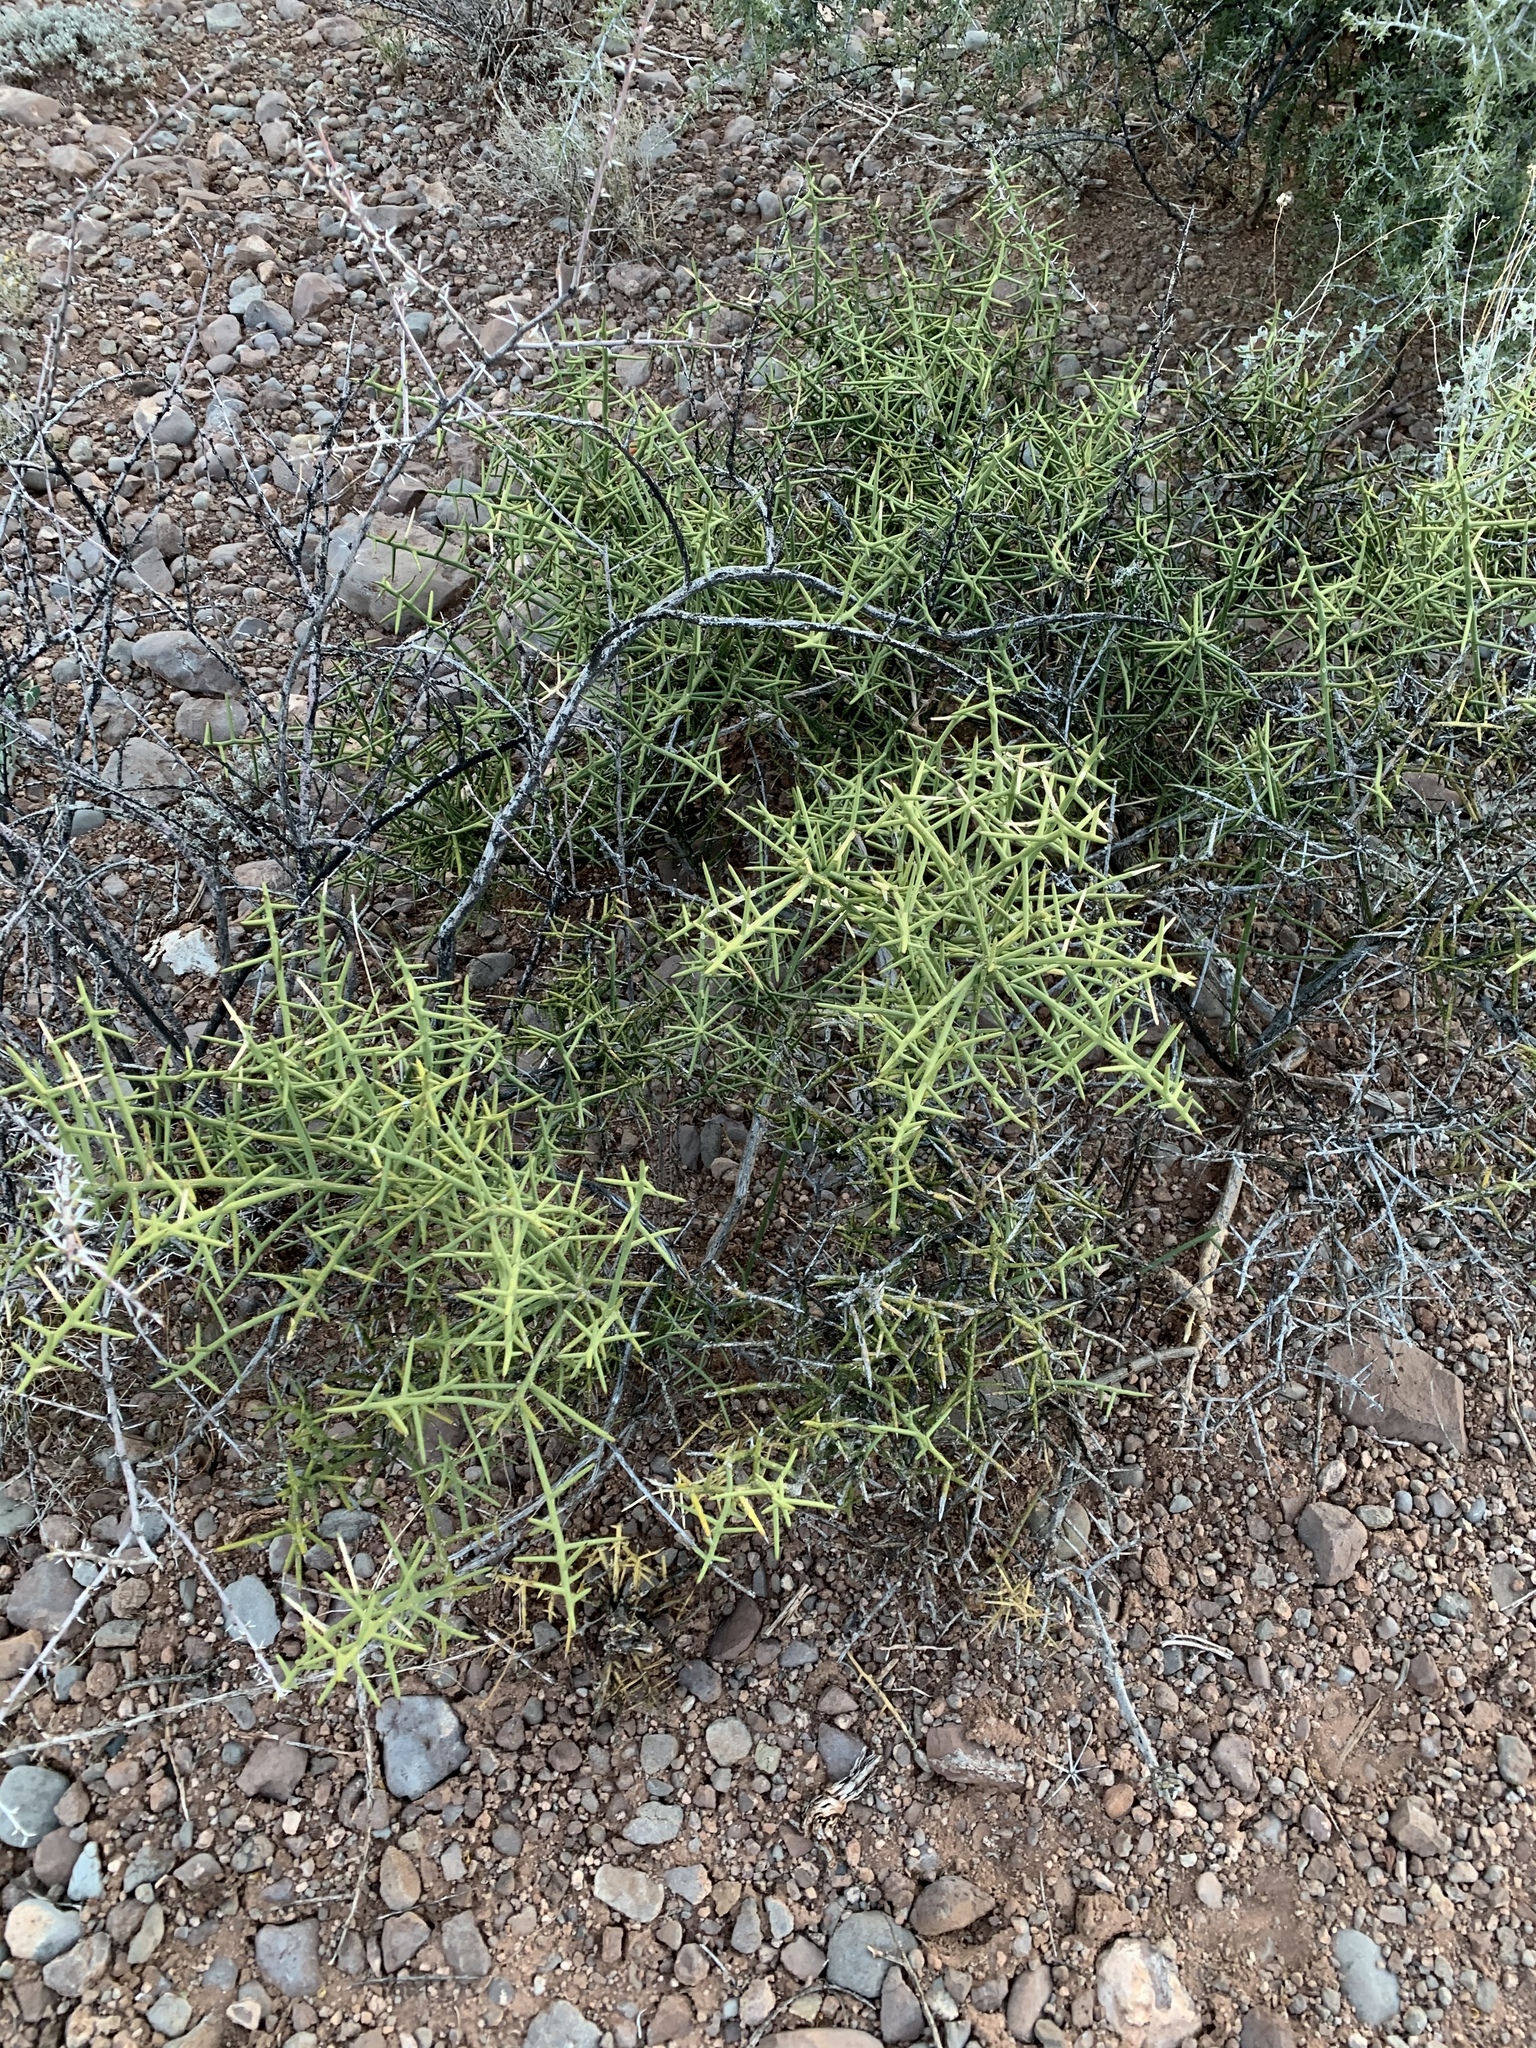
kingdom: Plantae
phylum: Tracheophyta
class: Magnoliopsida
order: Brassicales
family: Koeberliniaceae
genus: Koeberlinia
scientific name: Koeberlinia spinosa
